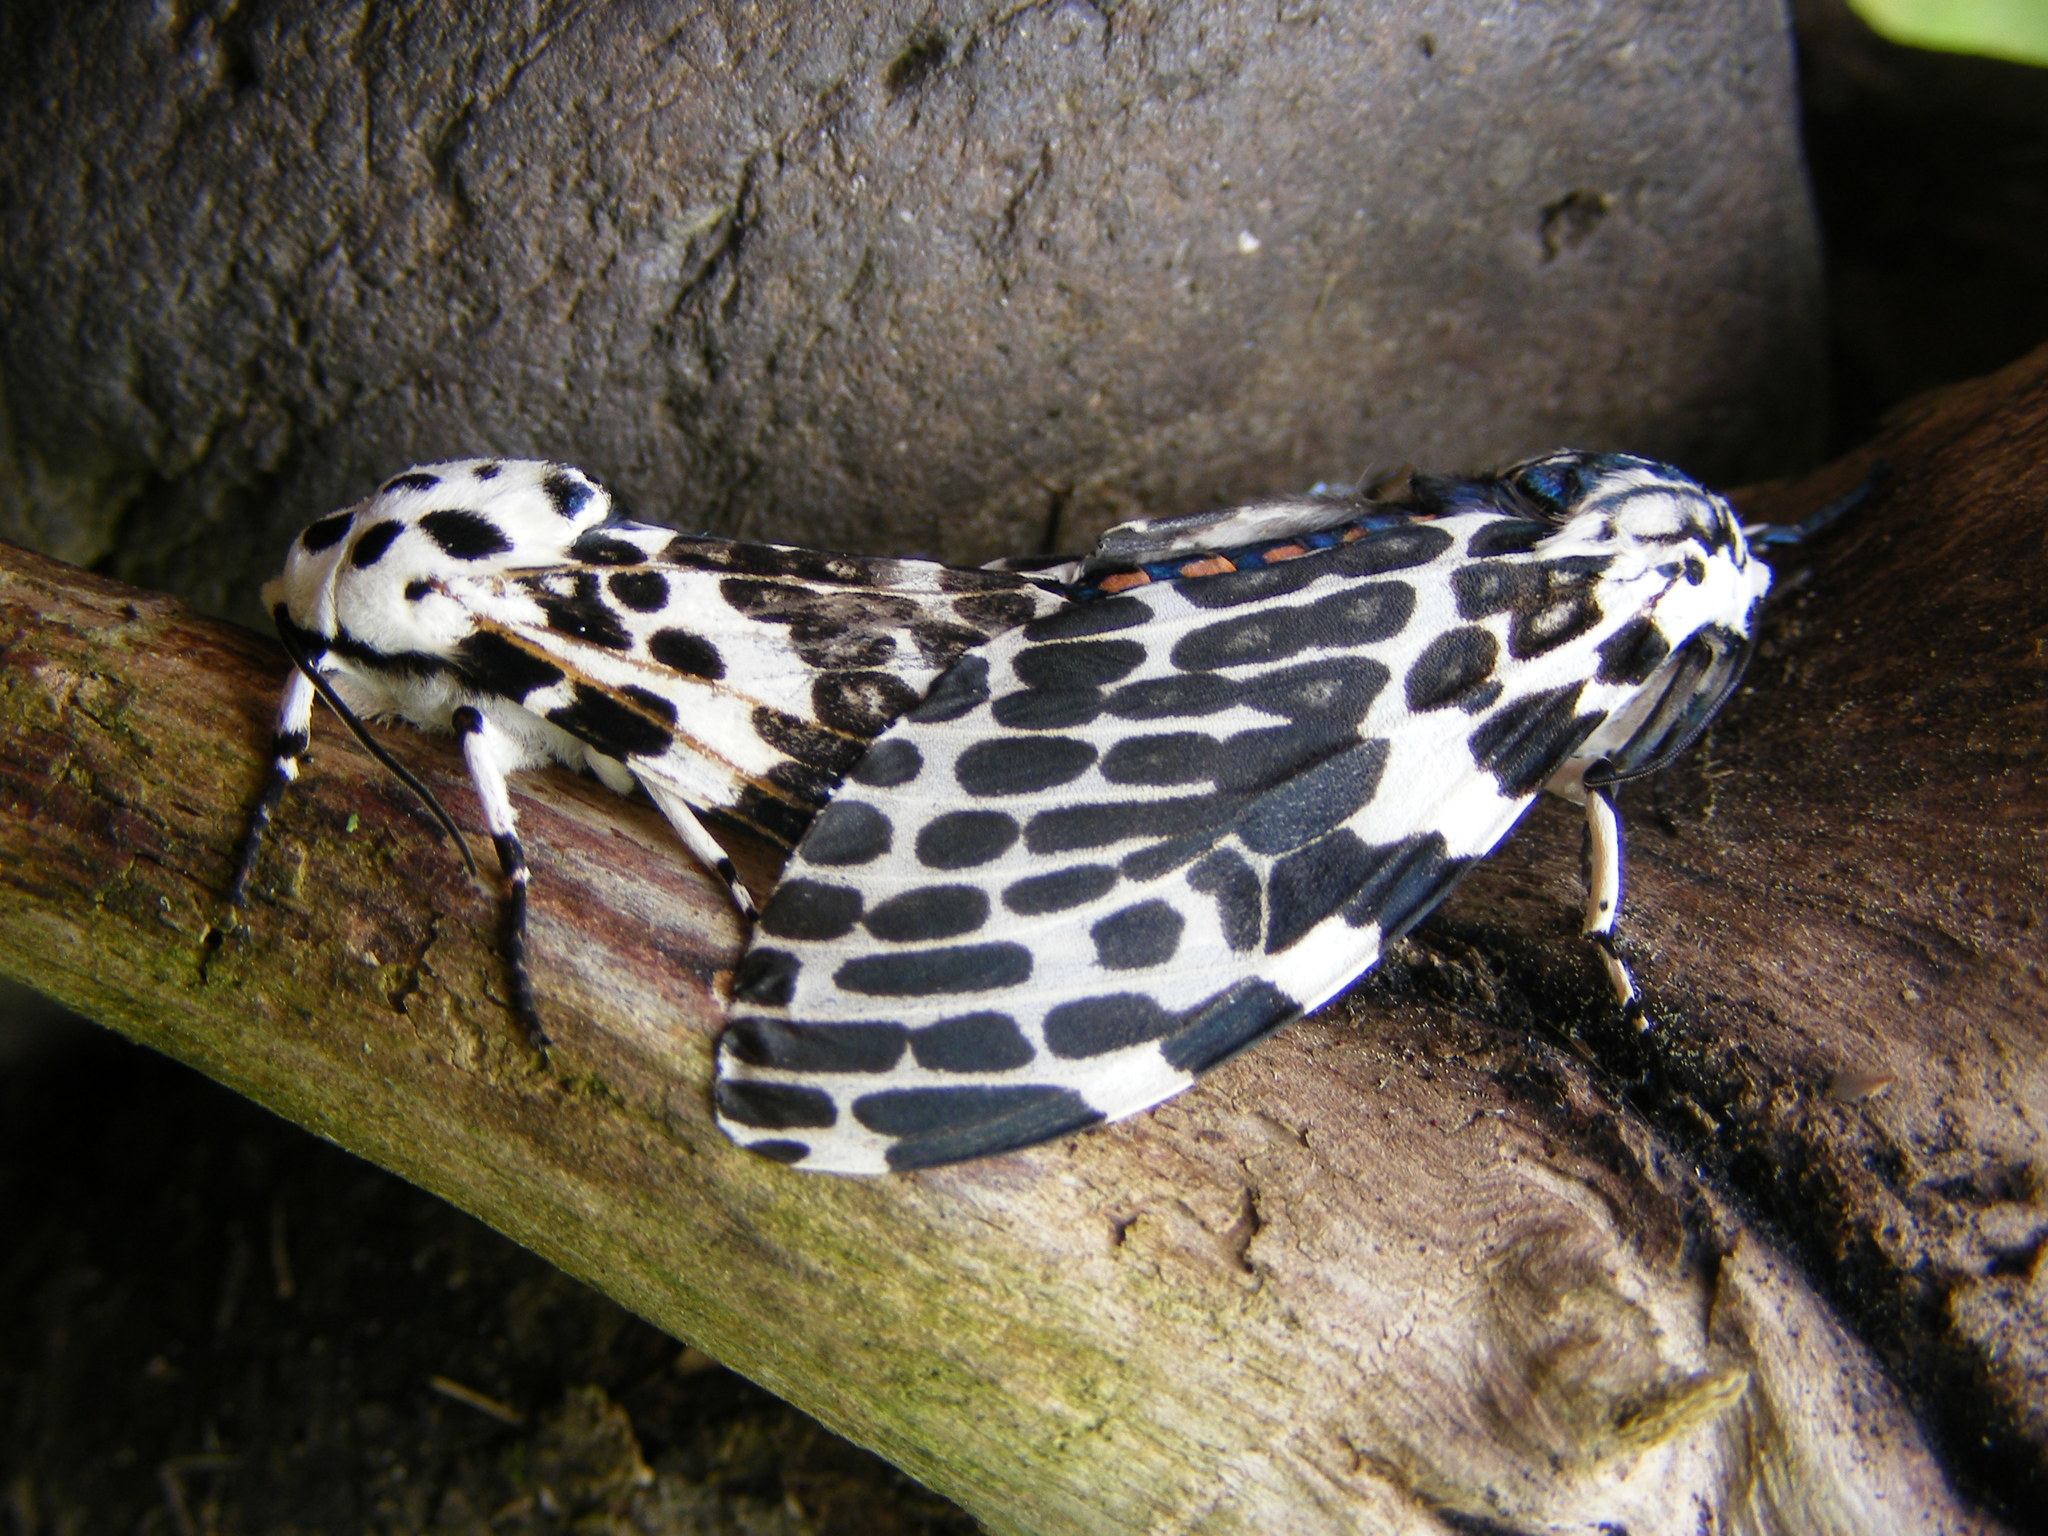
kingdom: Animalia
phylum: Arthropoda
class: Insecta
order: Lepidoptera
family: Erebidae
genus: Hypercompe
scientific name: Hypercompe scribonia
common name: Giant leopard moth
